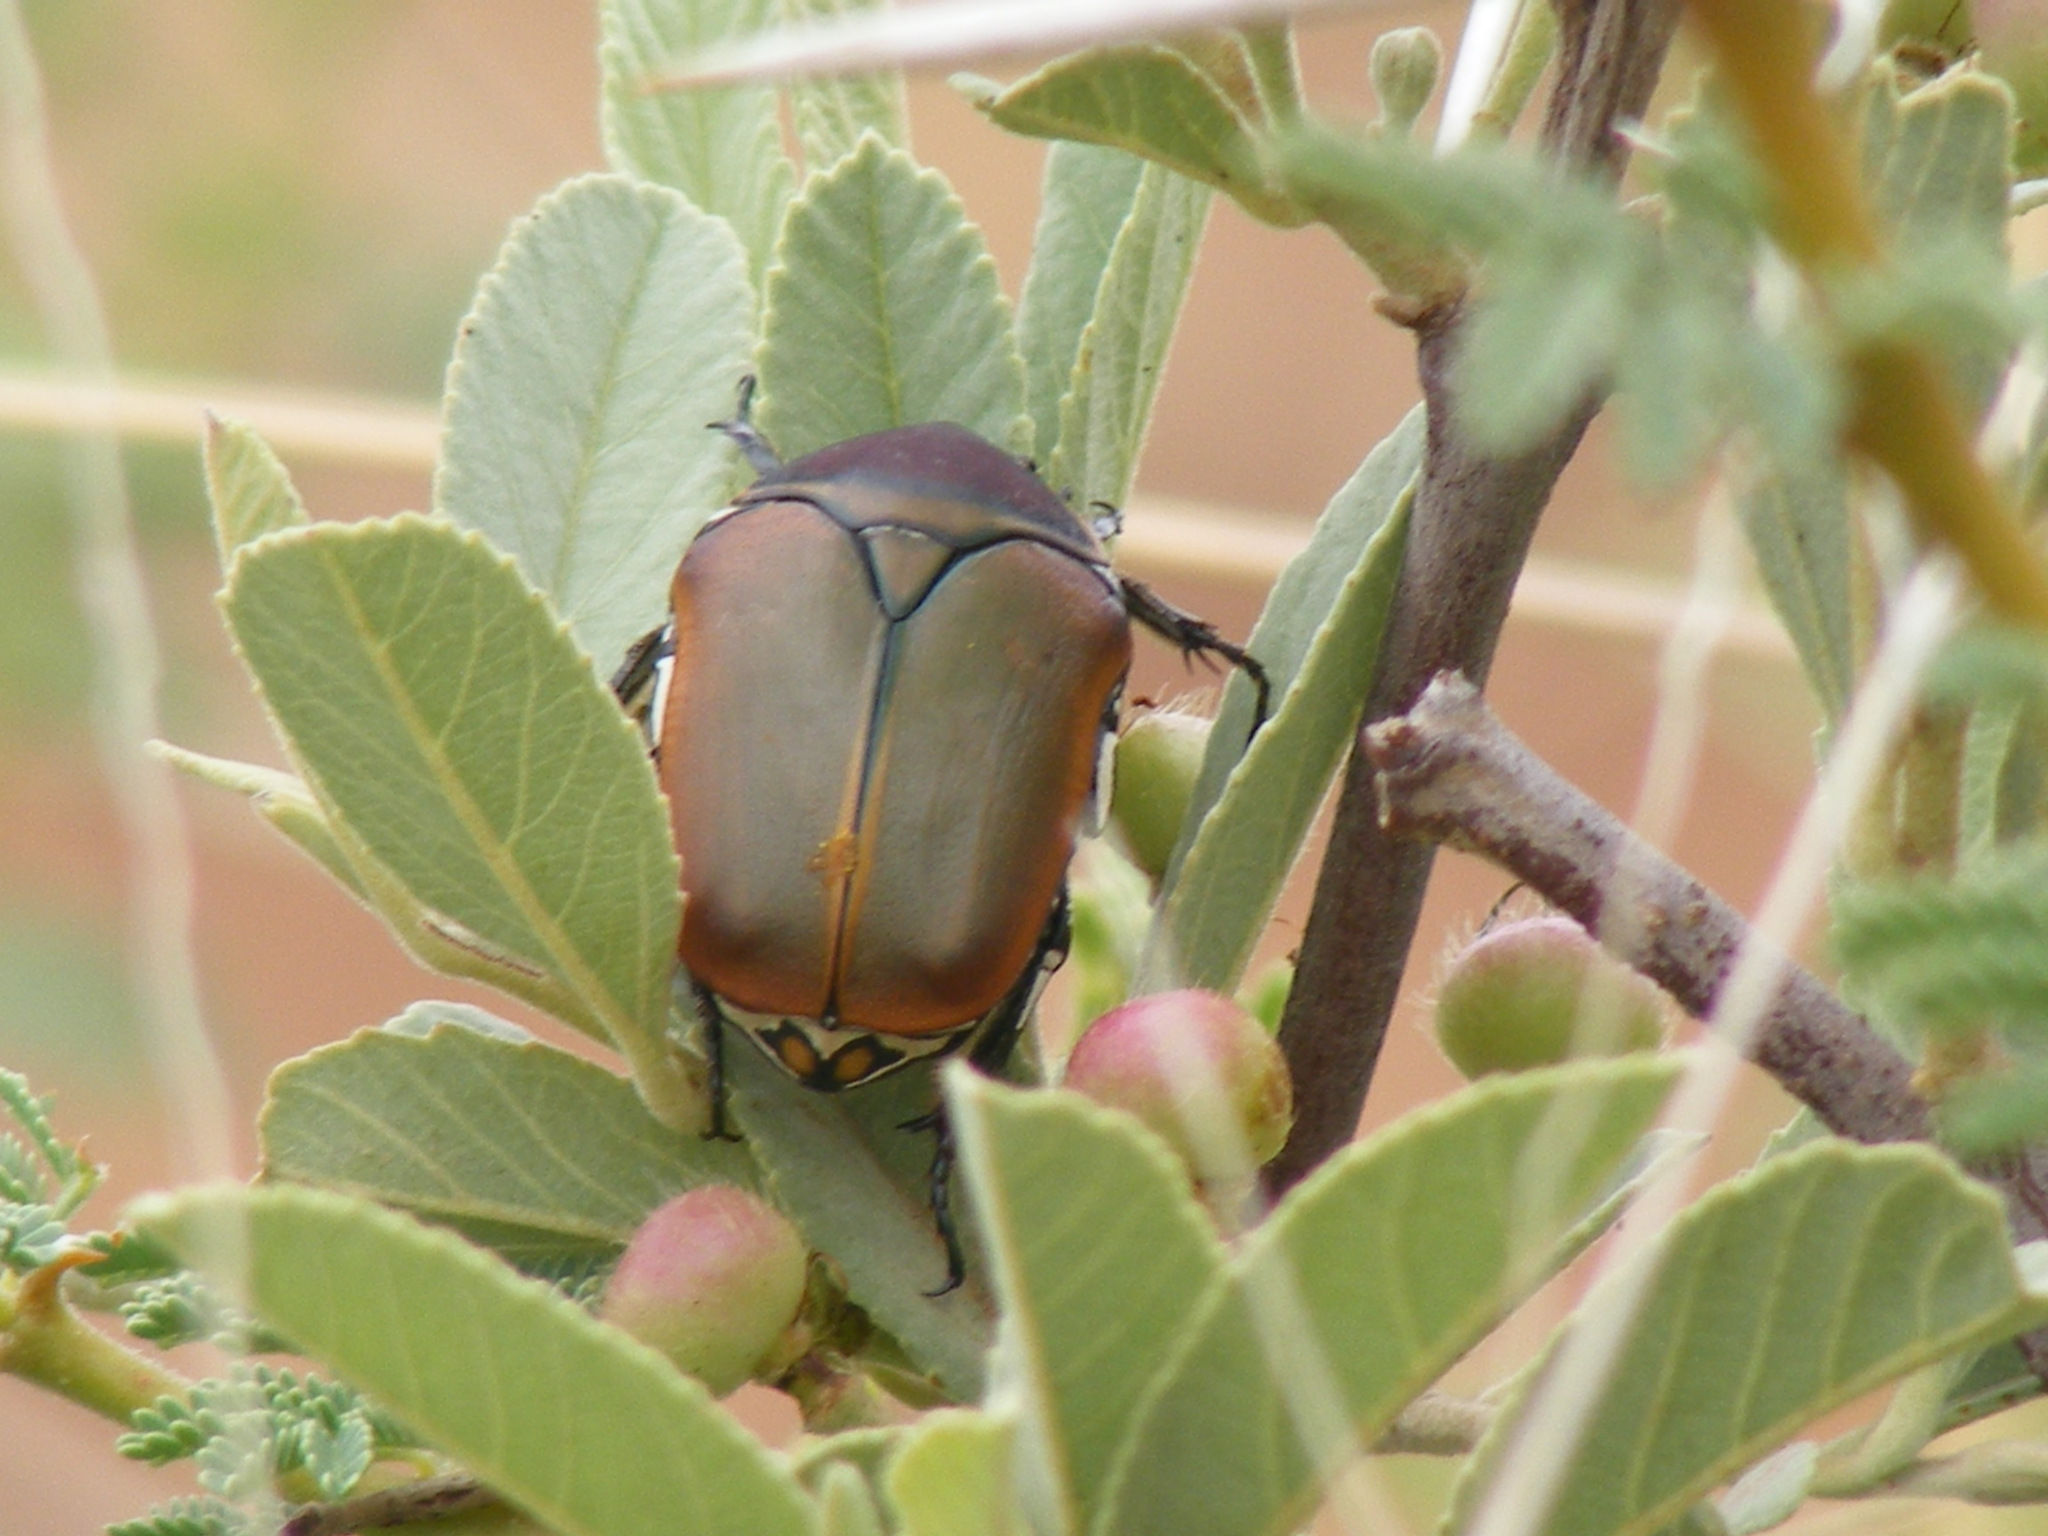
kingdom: Animalia
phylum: Arthropoda
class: Insecta
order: Coleoptera
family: Scarabaeidae
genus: Dischista
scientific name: Dischista cincta
